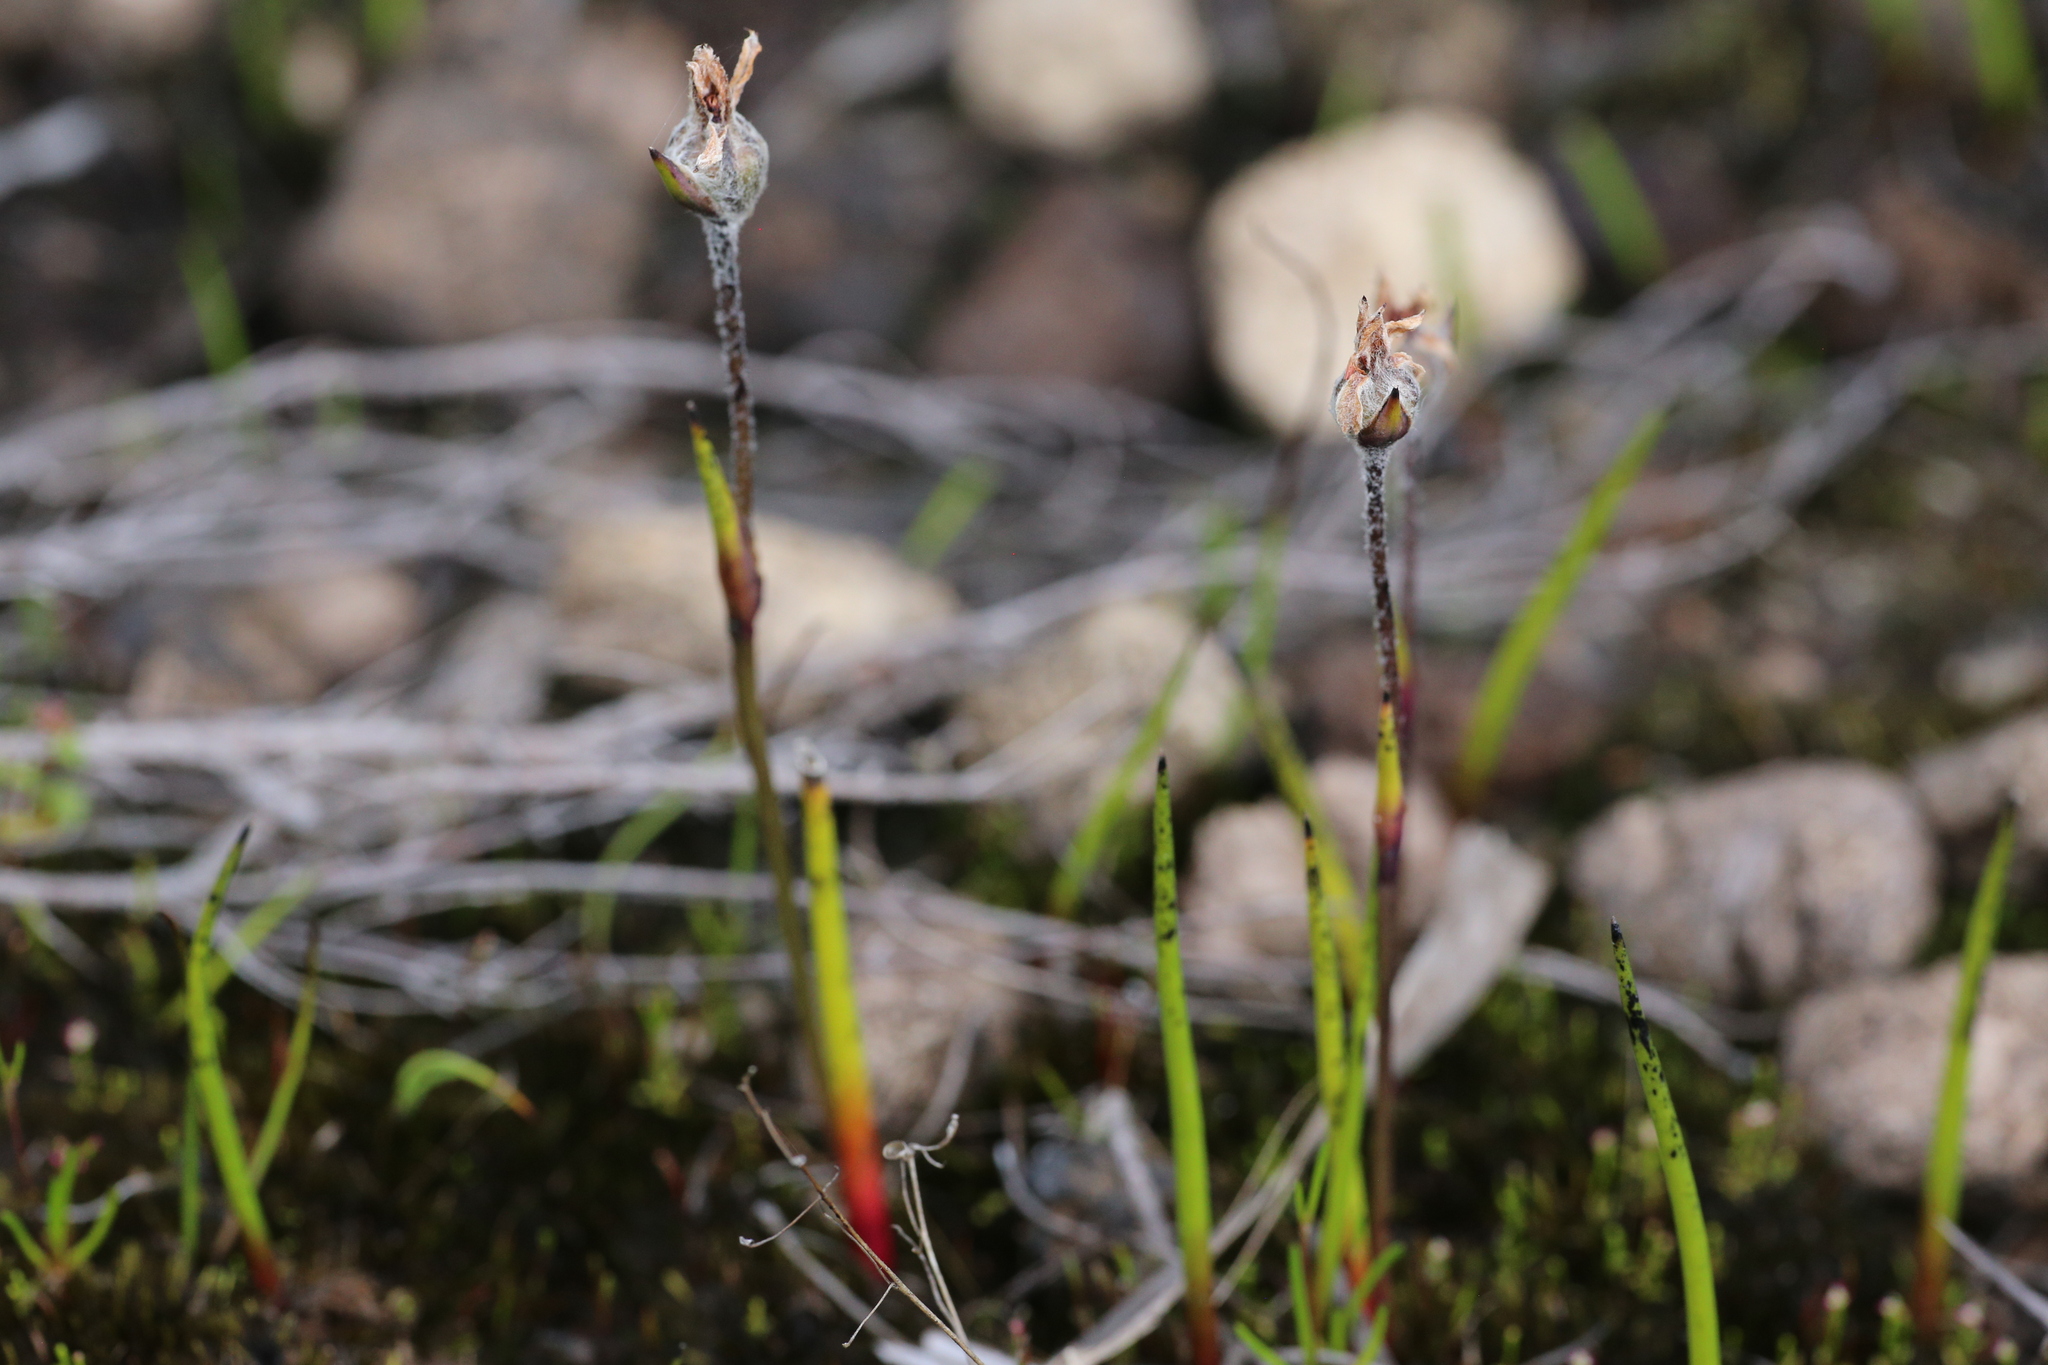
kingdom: Plantae
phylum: Tracheophyta
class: Liliopsida
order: Commelinales
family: Haemodoraceae
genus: Tribonanthes
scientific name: Tribonanthes australis
